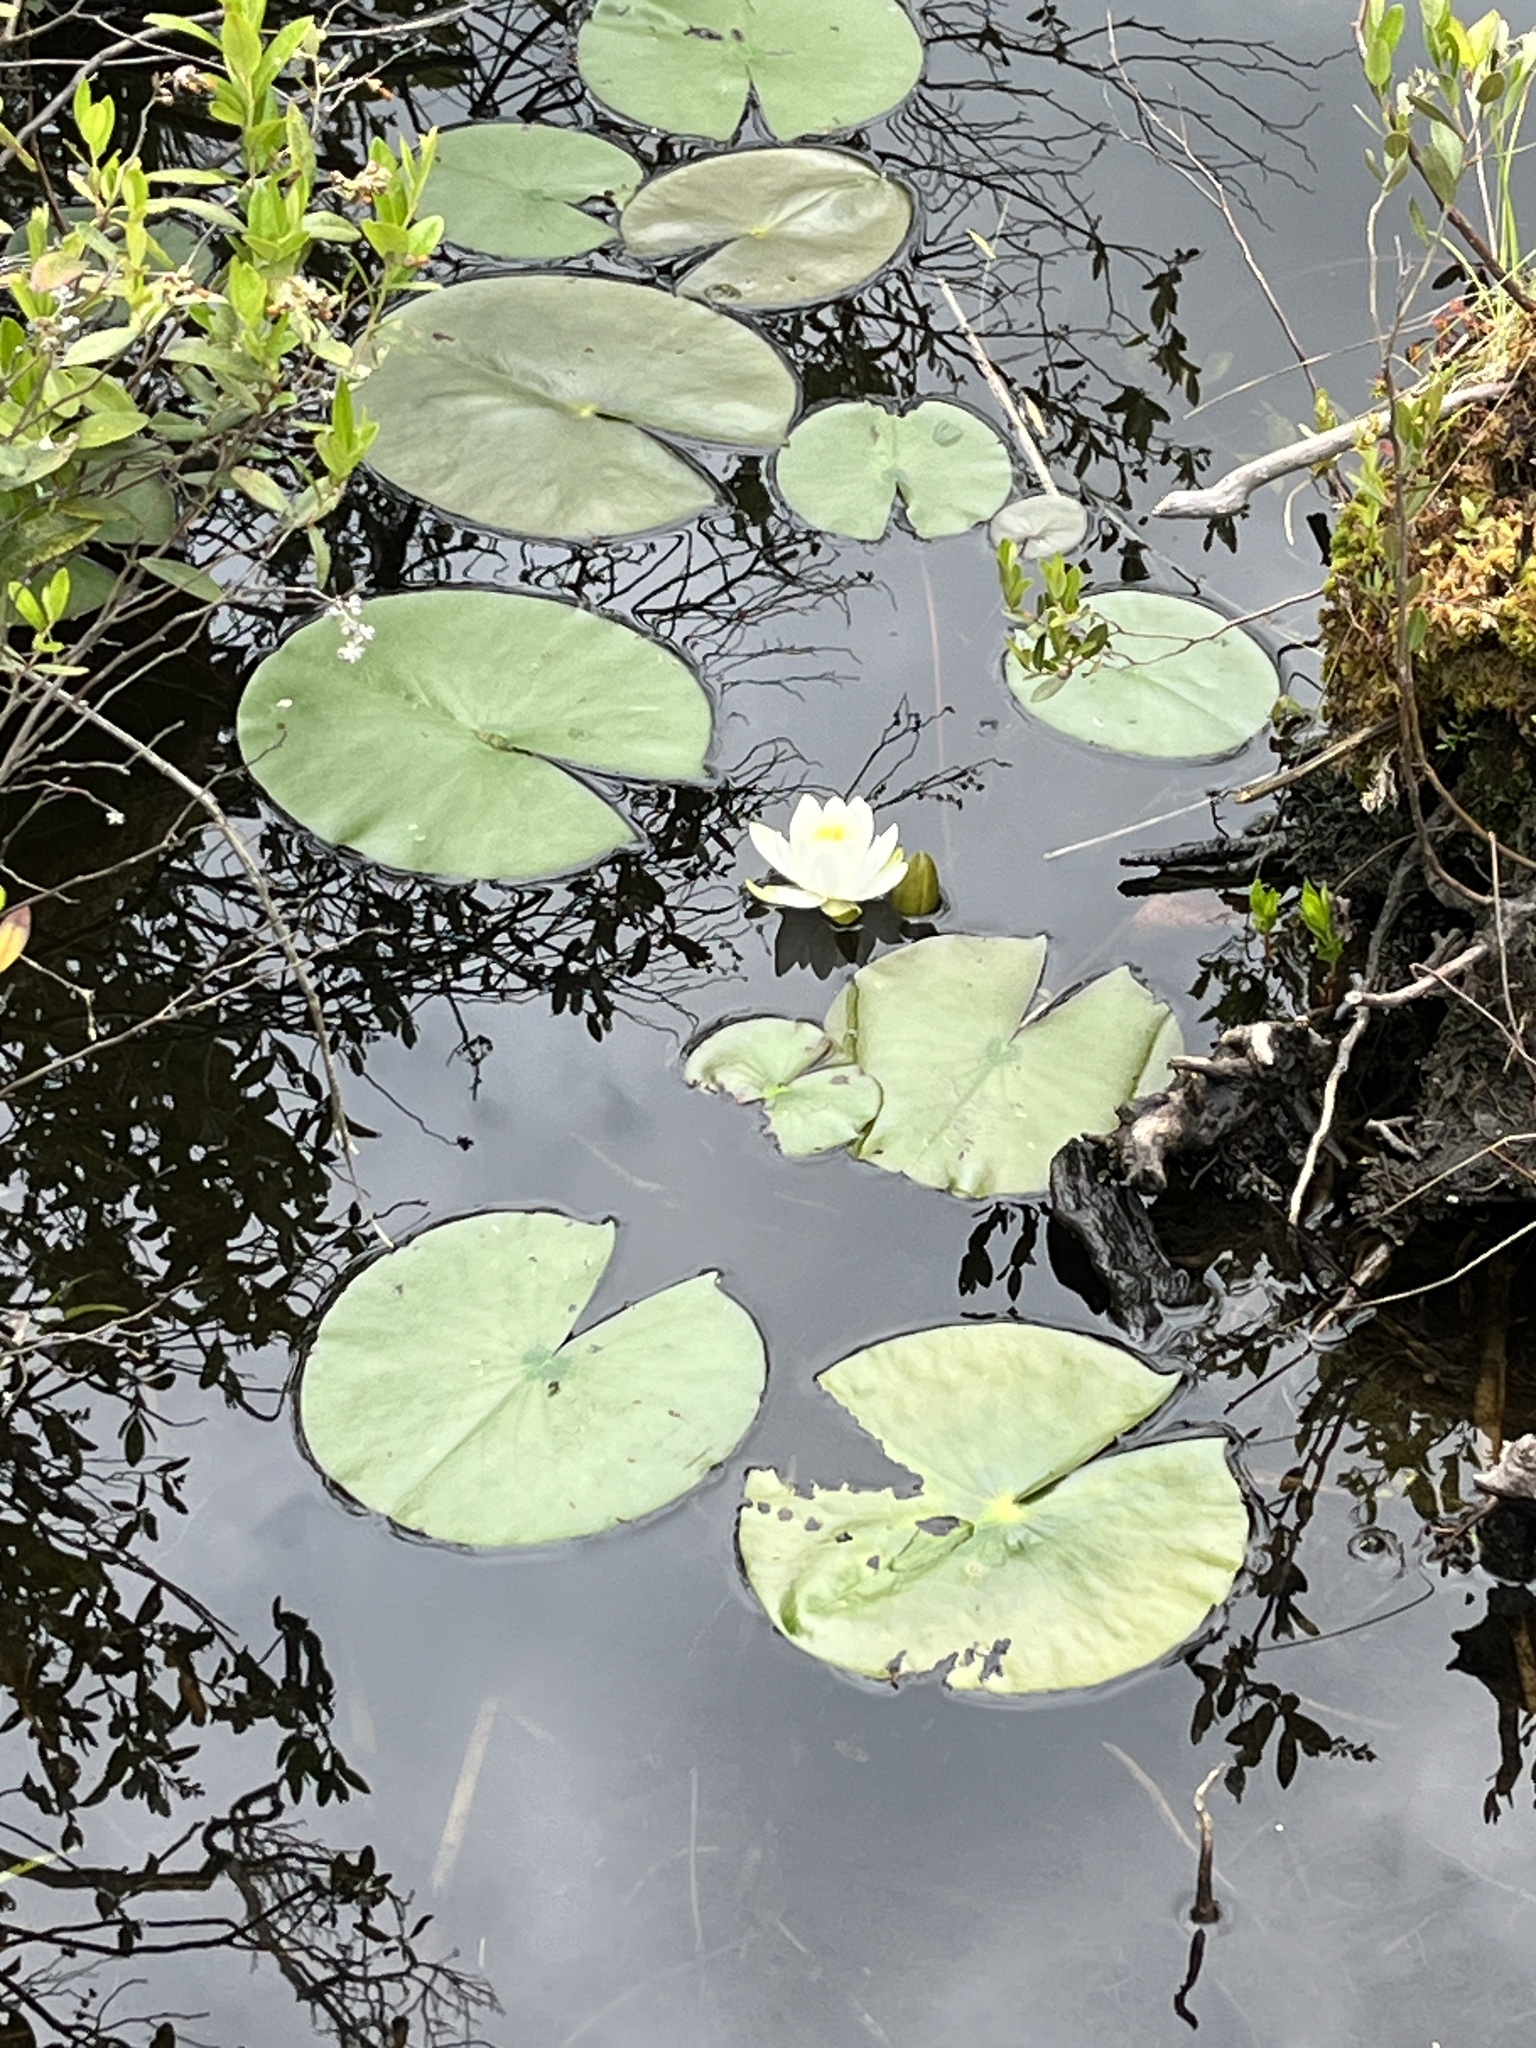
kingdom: Plantae
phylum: Tracheophyta
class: Magnoliopsida
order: Nymphaeales
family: Nymphaeaceae
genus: Nymphaea
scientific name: Nymphaea odorata
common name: Fragrant water-lily
